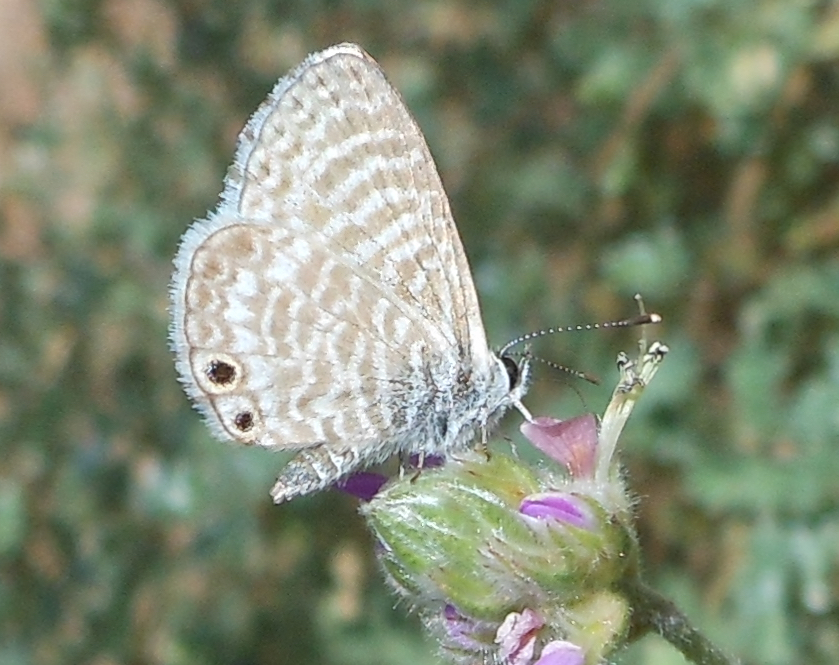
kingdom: Animalia
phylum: Arthropoda
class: Insecta
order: Lepidoptera
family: Lycaenidae
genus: Leptotes
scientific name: Leptotes marina
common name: Marine blue
